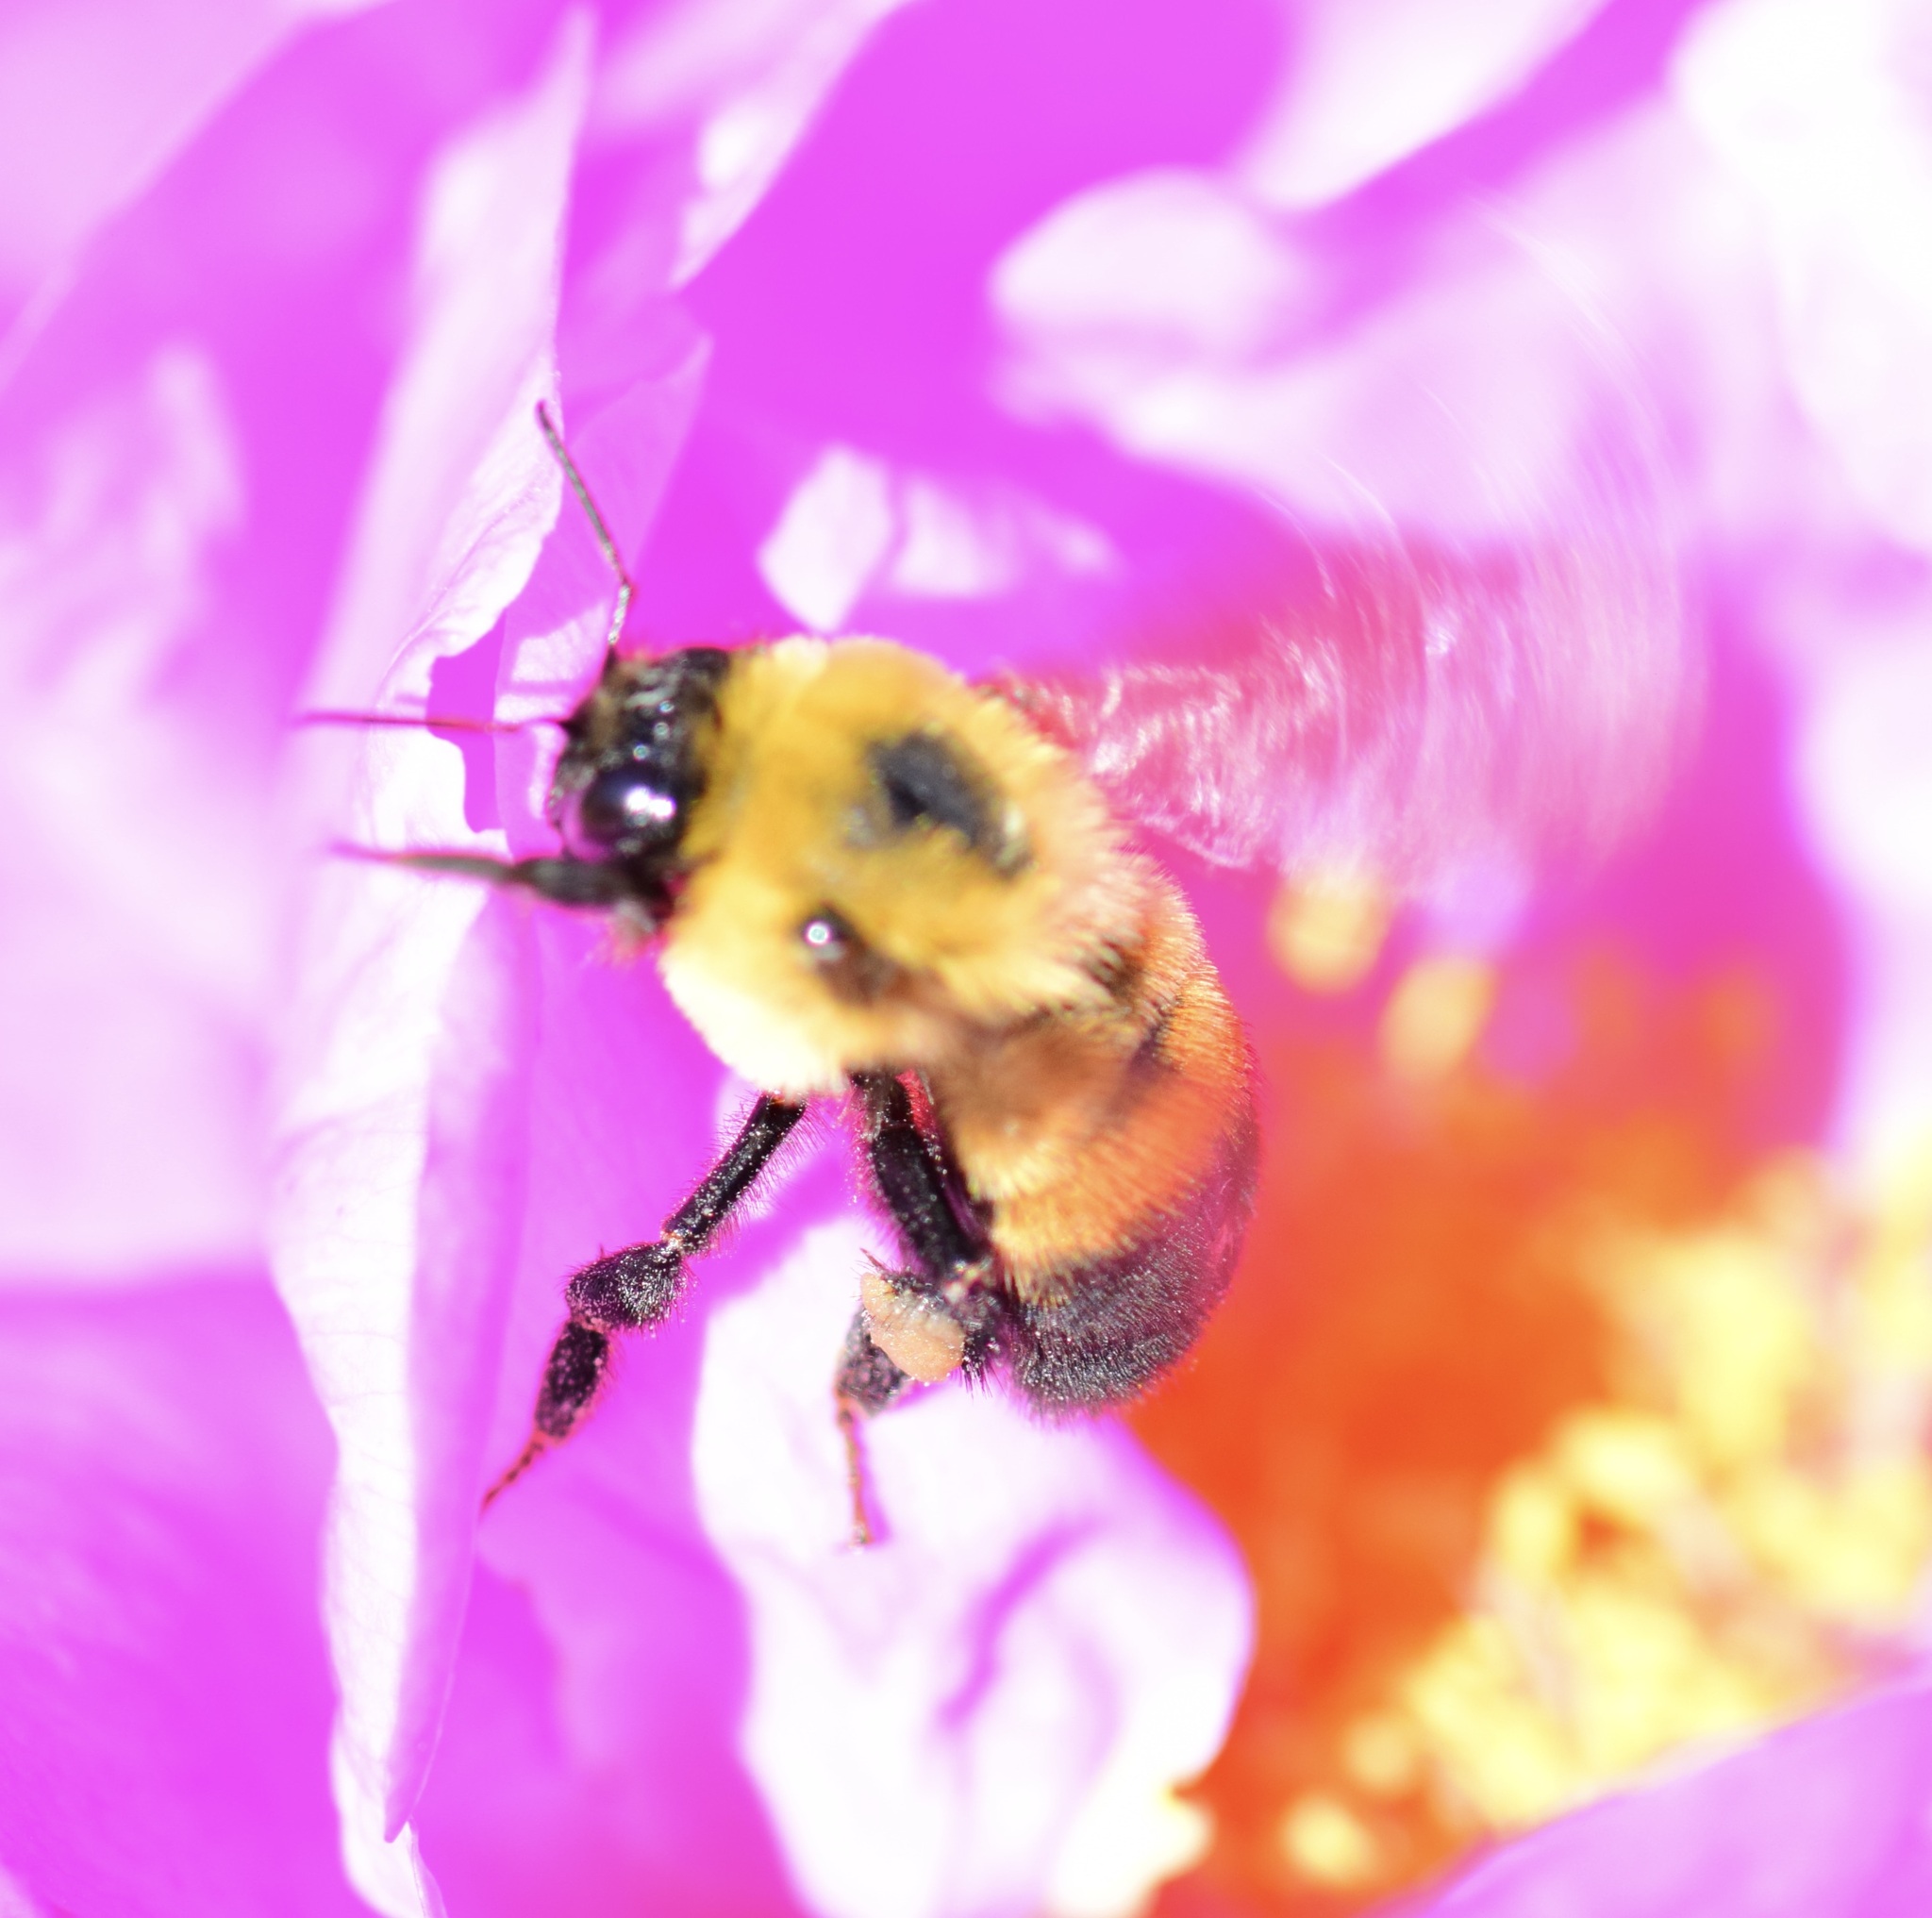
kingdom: Animalia
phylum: Arthropoda
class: Insecta
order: Hymenoptera
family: Apidae
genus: Bombus
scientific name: Bombus griseocollis
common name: Brown-belted bumble bee
